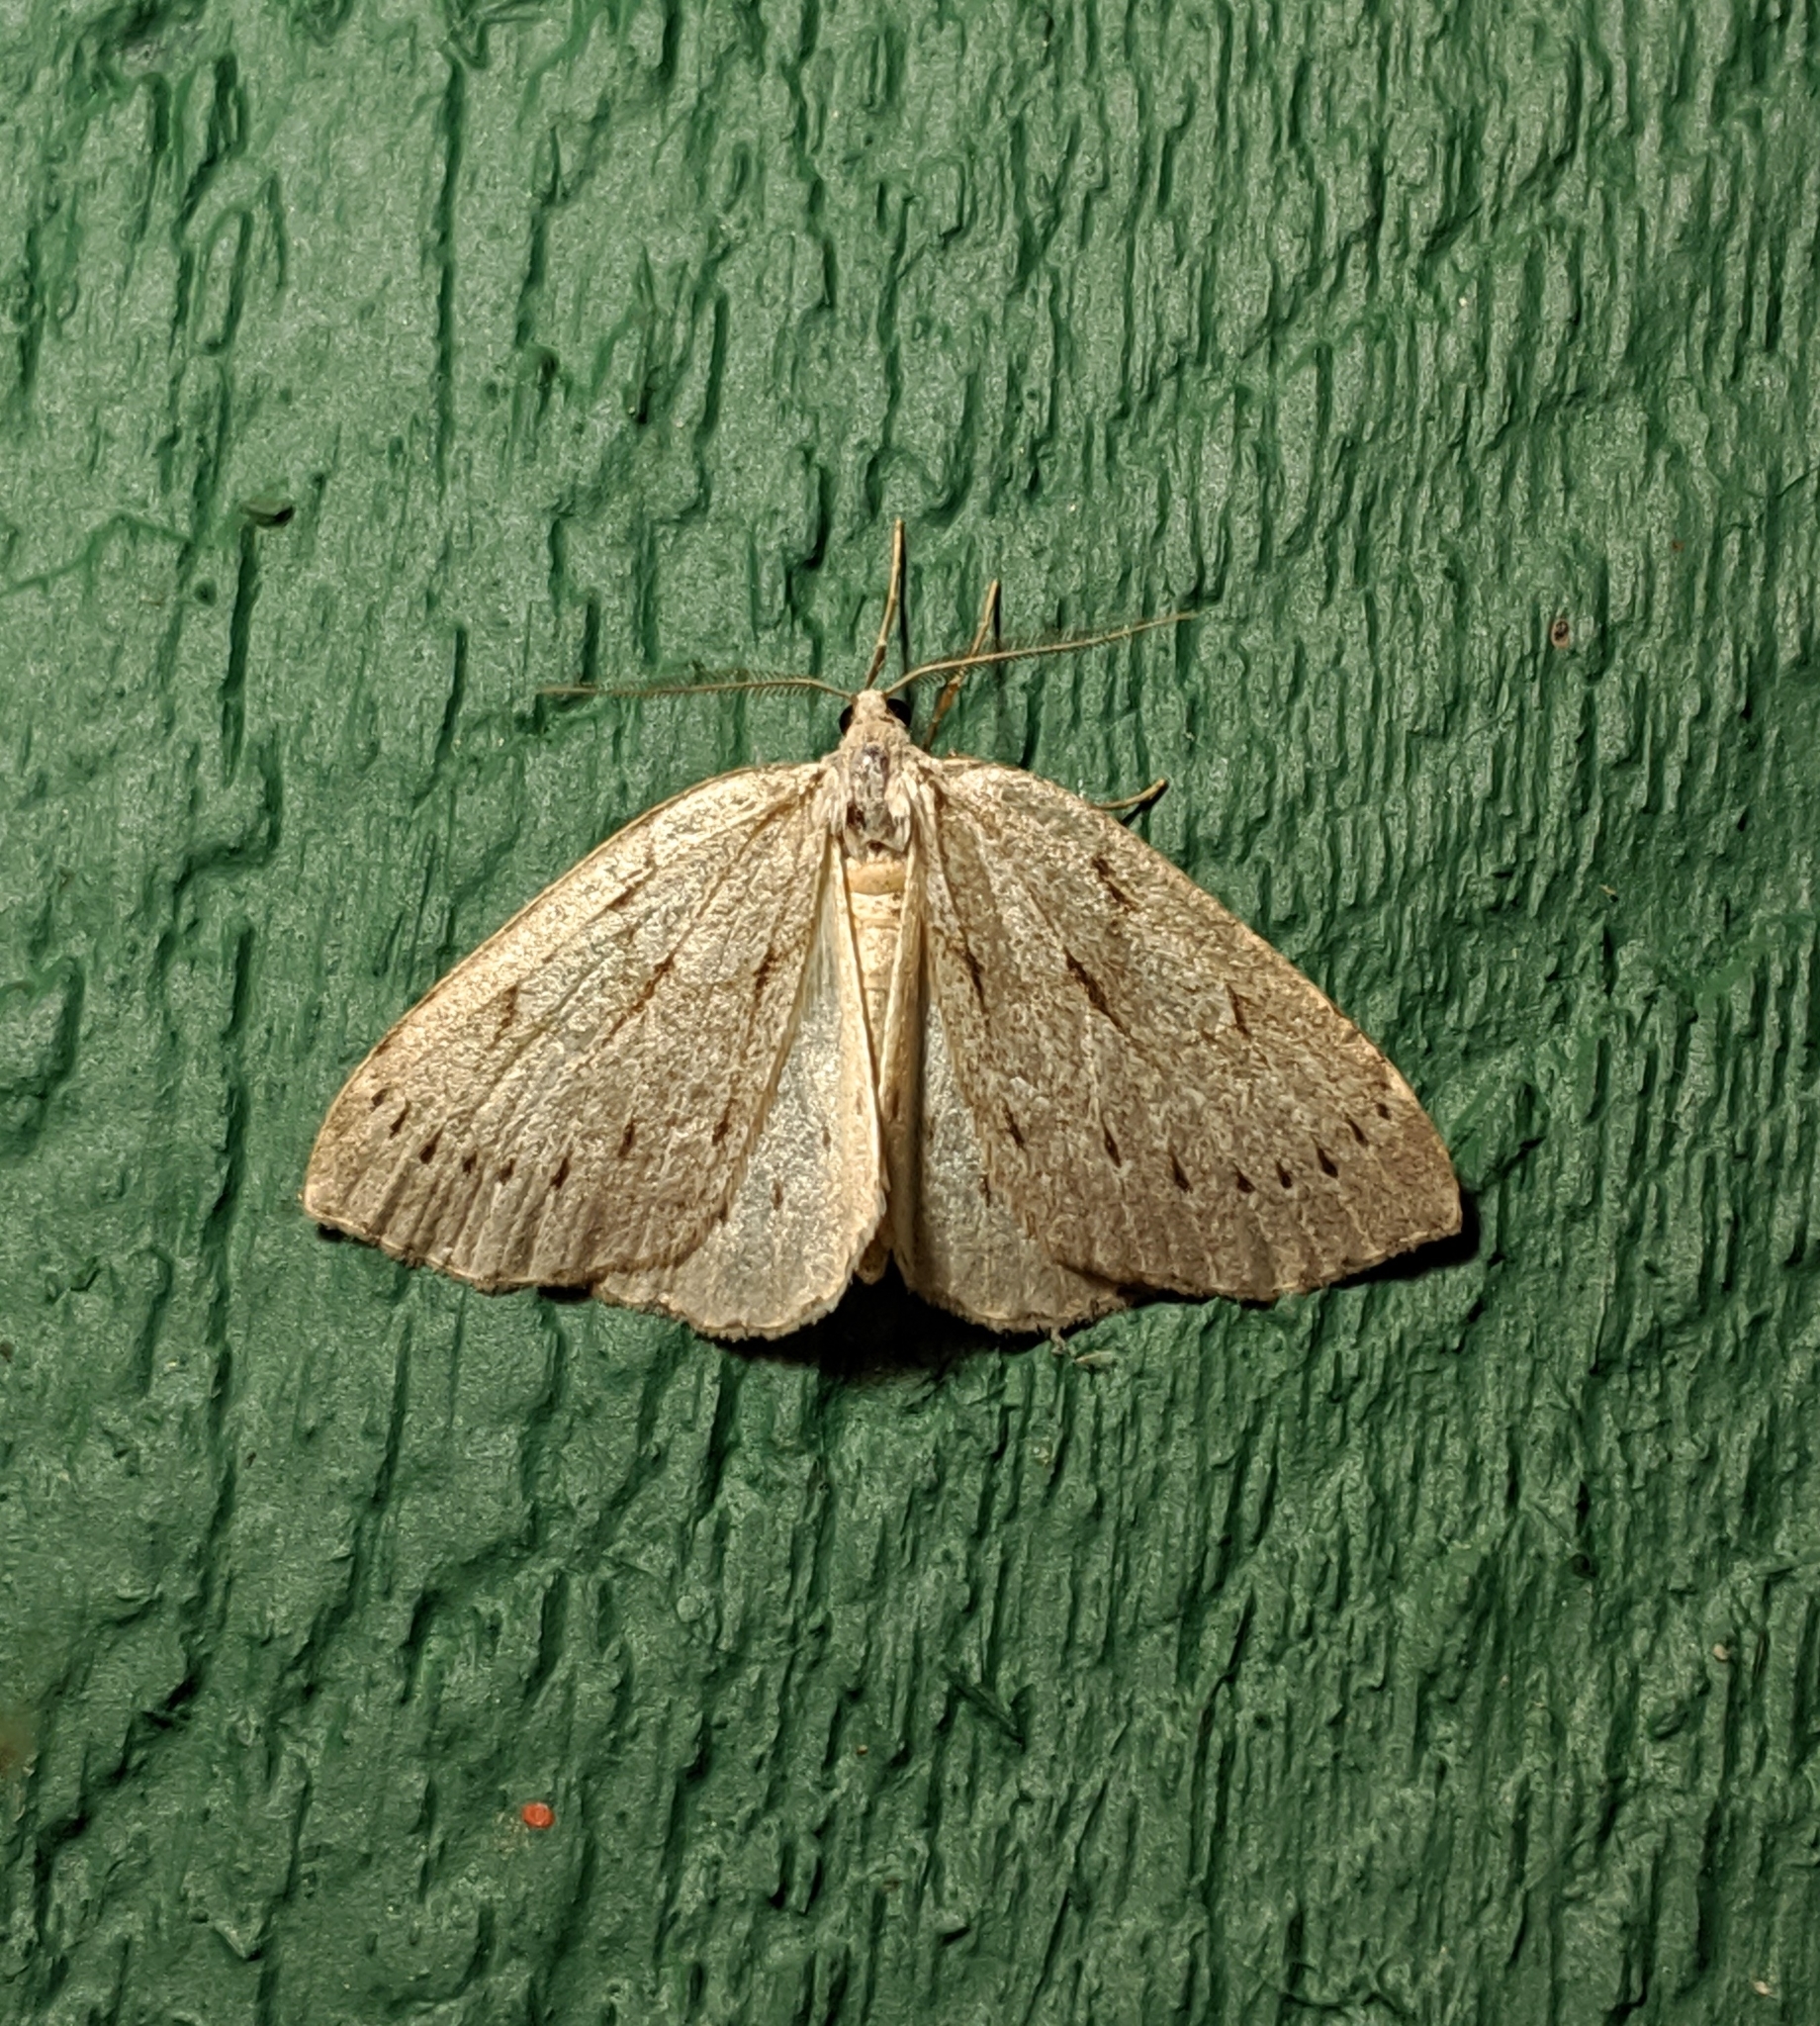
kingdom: Animalia
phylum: Arthropoda
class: Insecta
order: Lepidoptera
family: Geometridae
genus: Philedia
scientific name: Philedia punctomacularia
